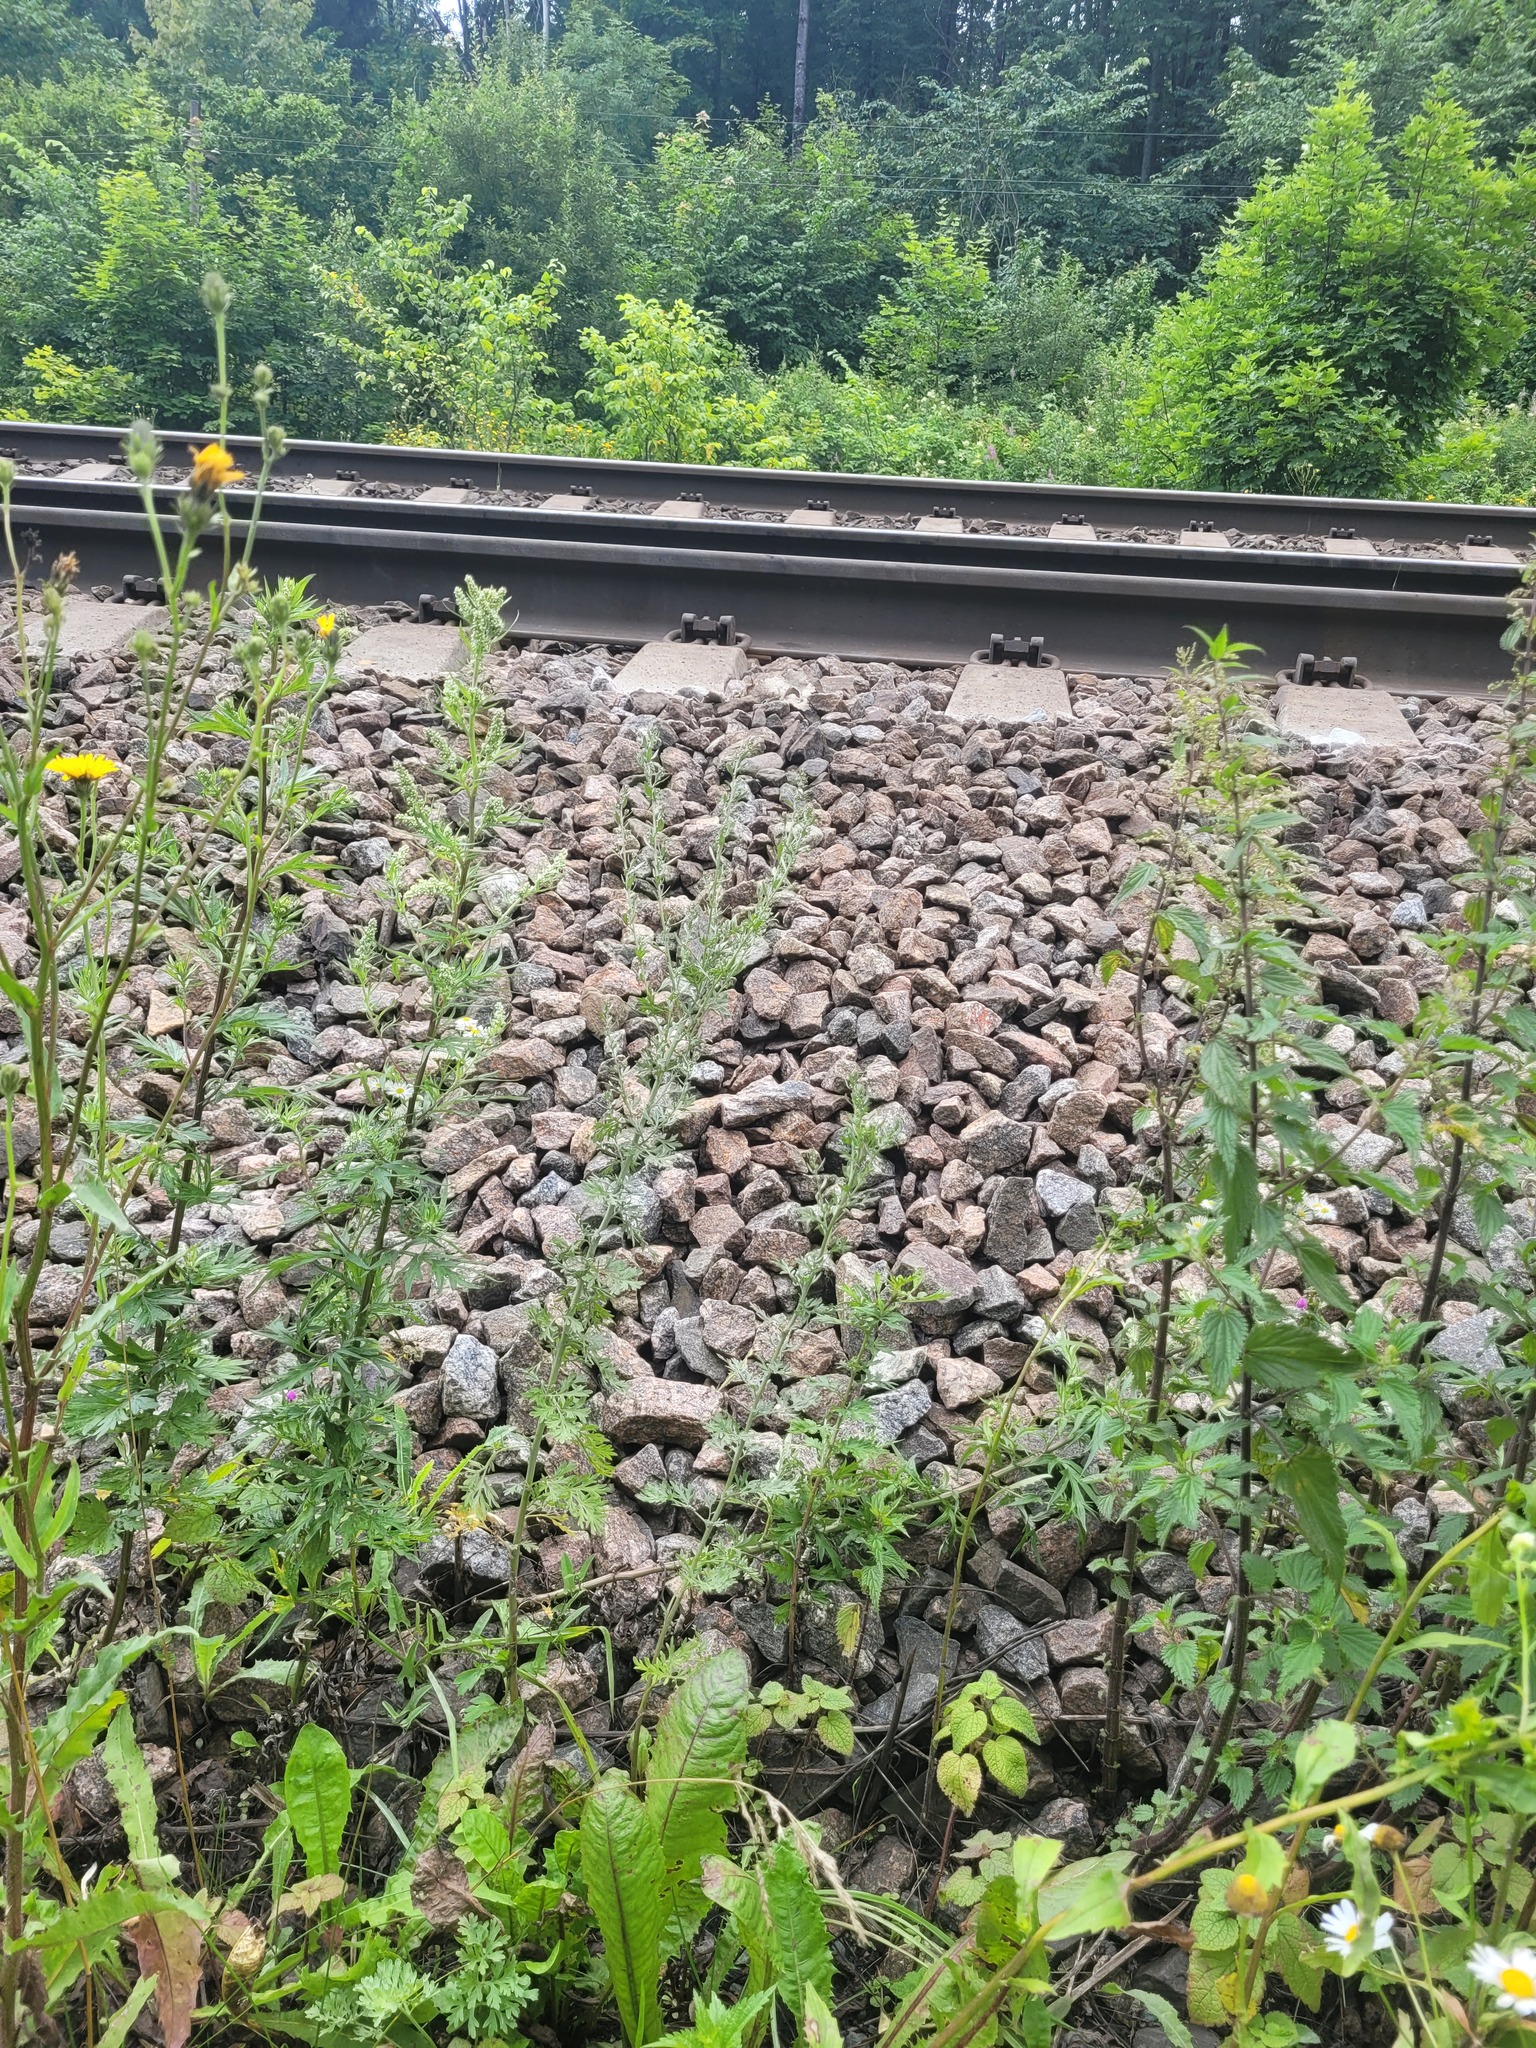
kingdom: Plantae
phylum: Tracheophyta
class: Magnoliopsida
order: Asterales
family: Asteraceae
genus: Artemisia
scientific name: Artemisia absinthium
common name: Wormwood
